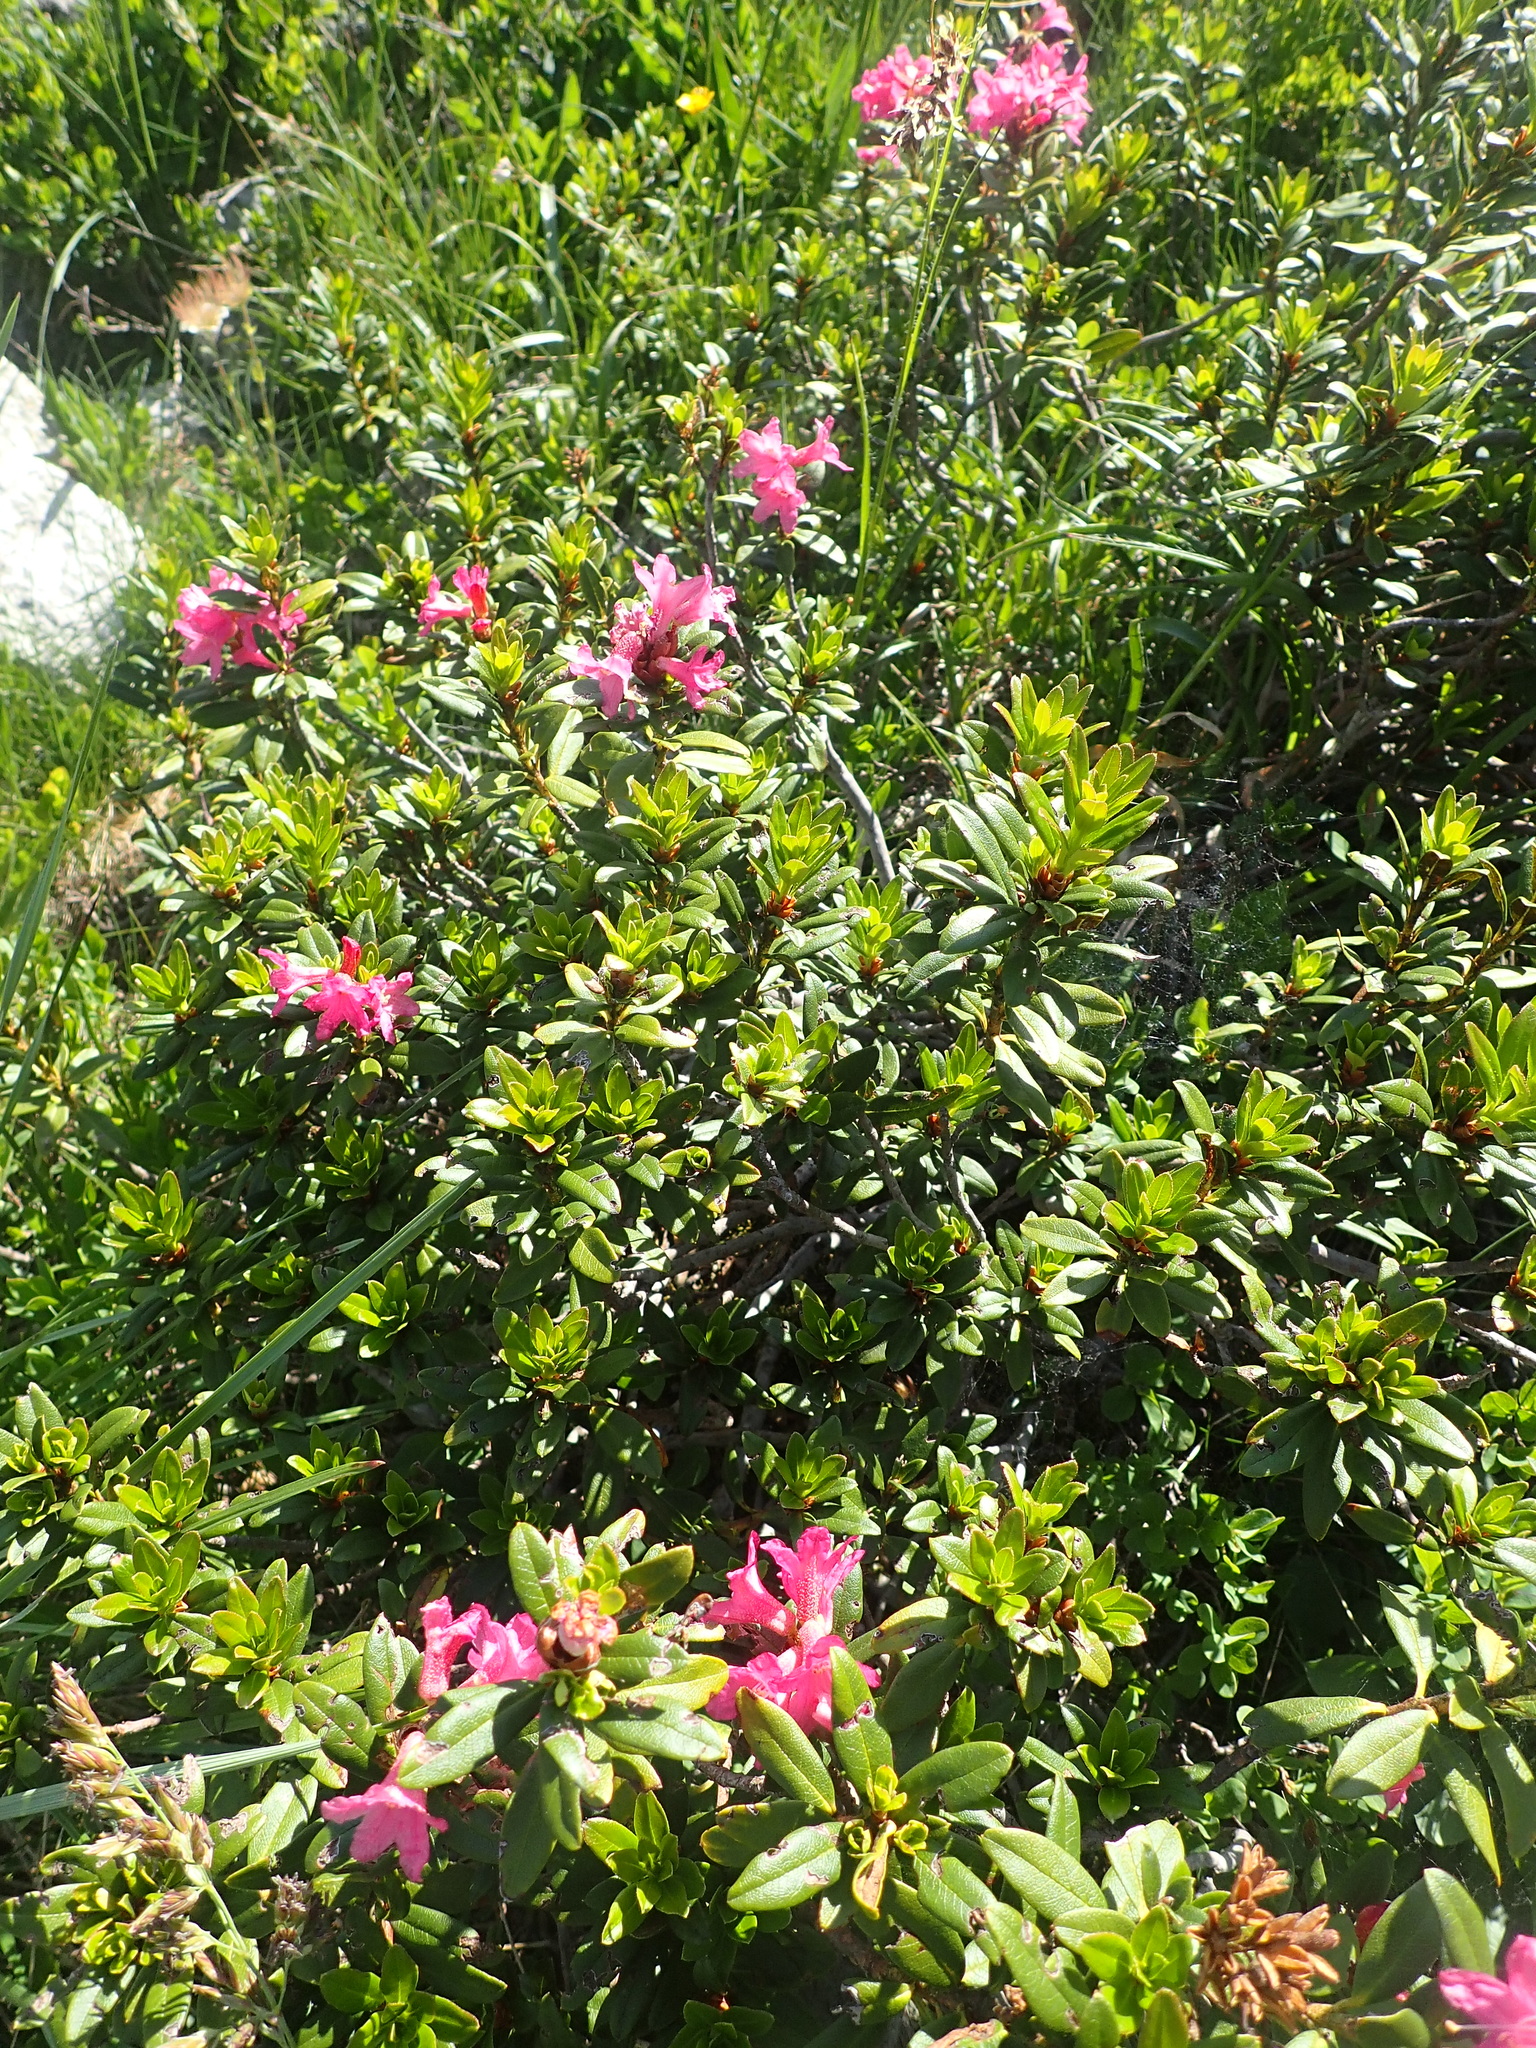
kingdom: Plantae
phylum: Tracheophyta
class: Magnoliopsida
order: Ericales
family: Ericaceae
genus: Rhododendron
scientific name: Rhododendron ferrugineum
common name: Alpenrose
